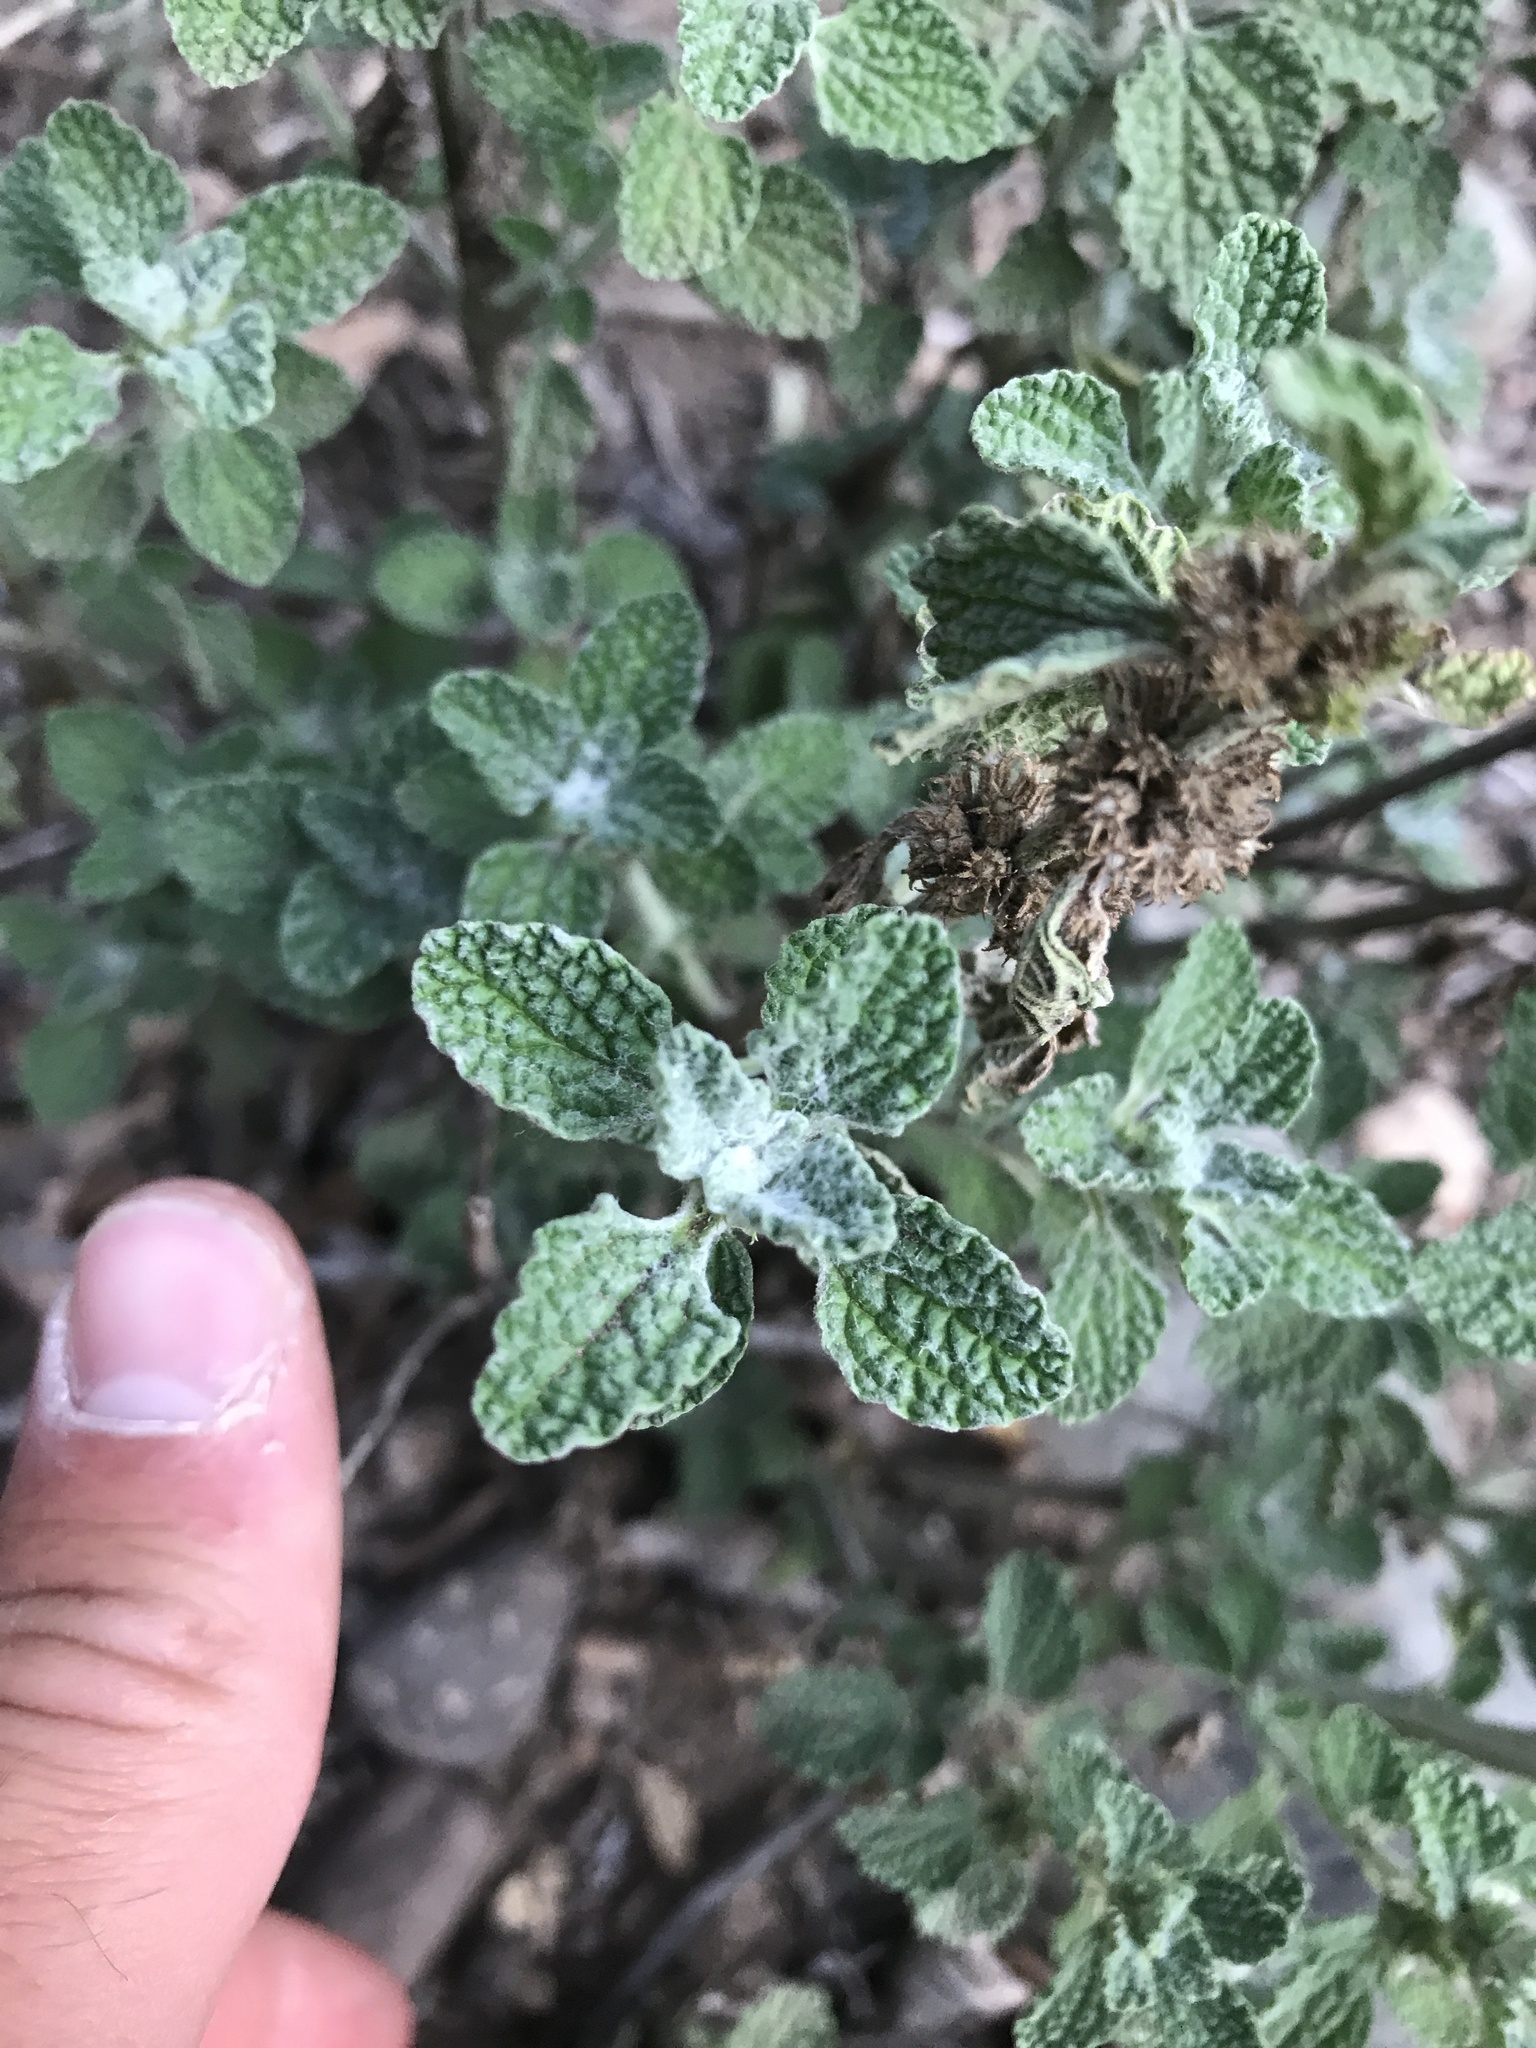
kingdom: Plantae
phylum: Tracheophyta
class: Magnoliopsida
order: Lamiales
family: Lamiaceae
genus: Marrubium
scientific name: Marrubium vulgare
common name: Horehound
